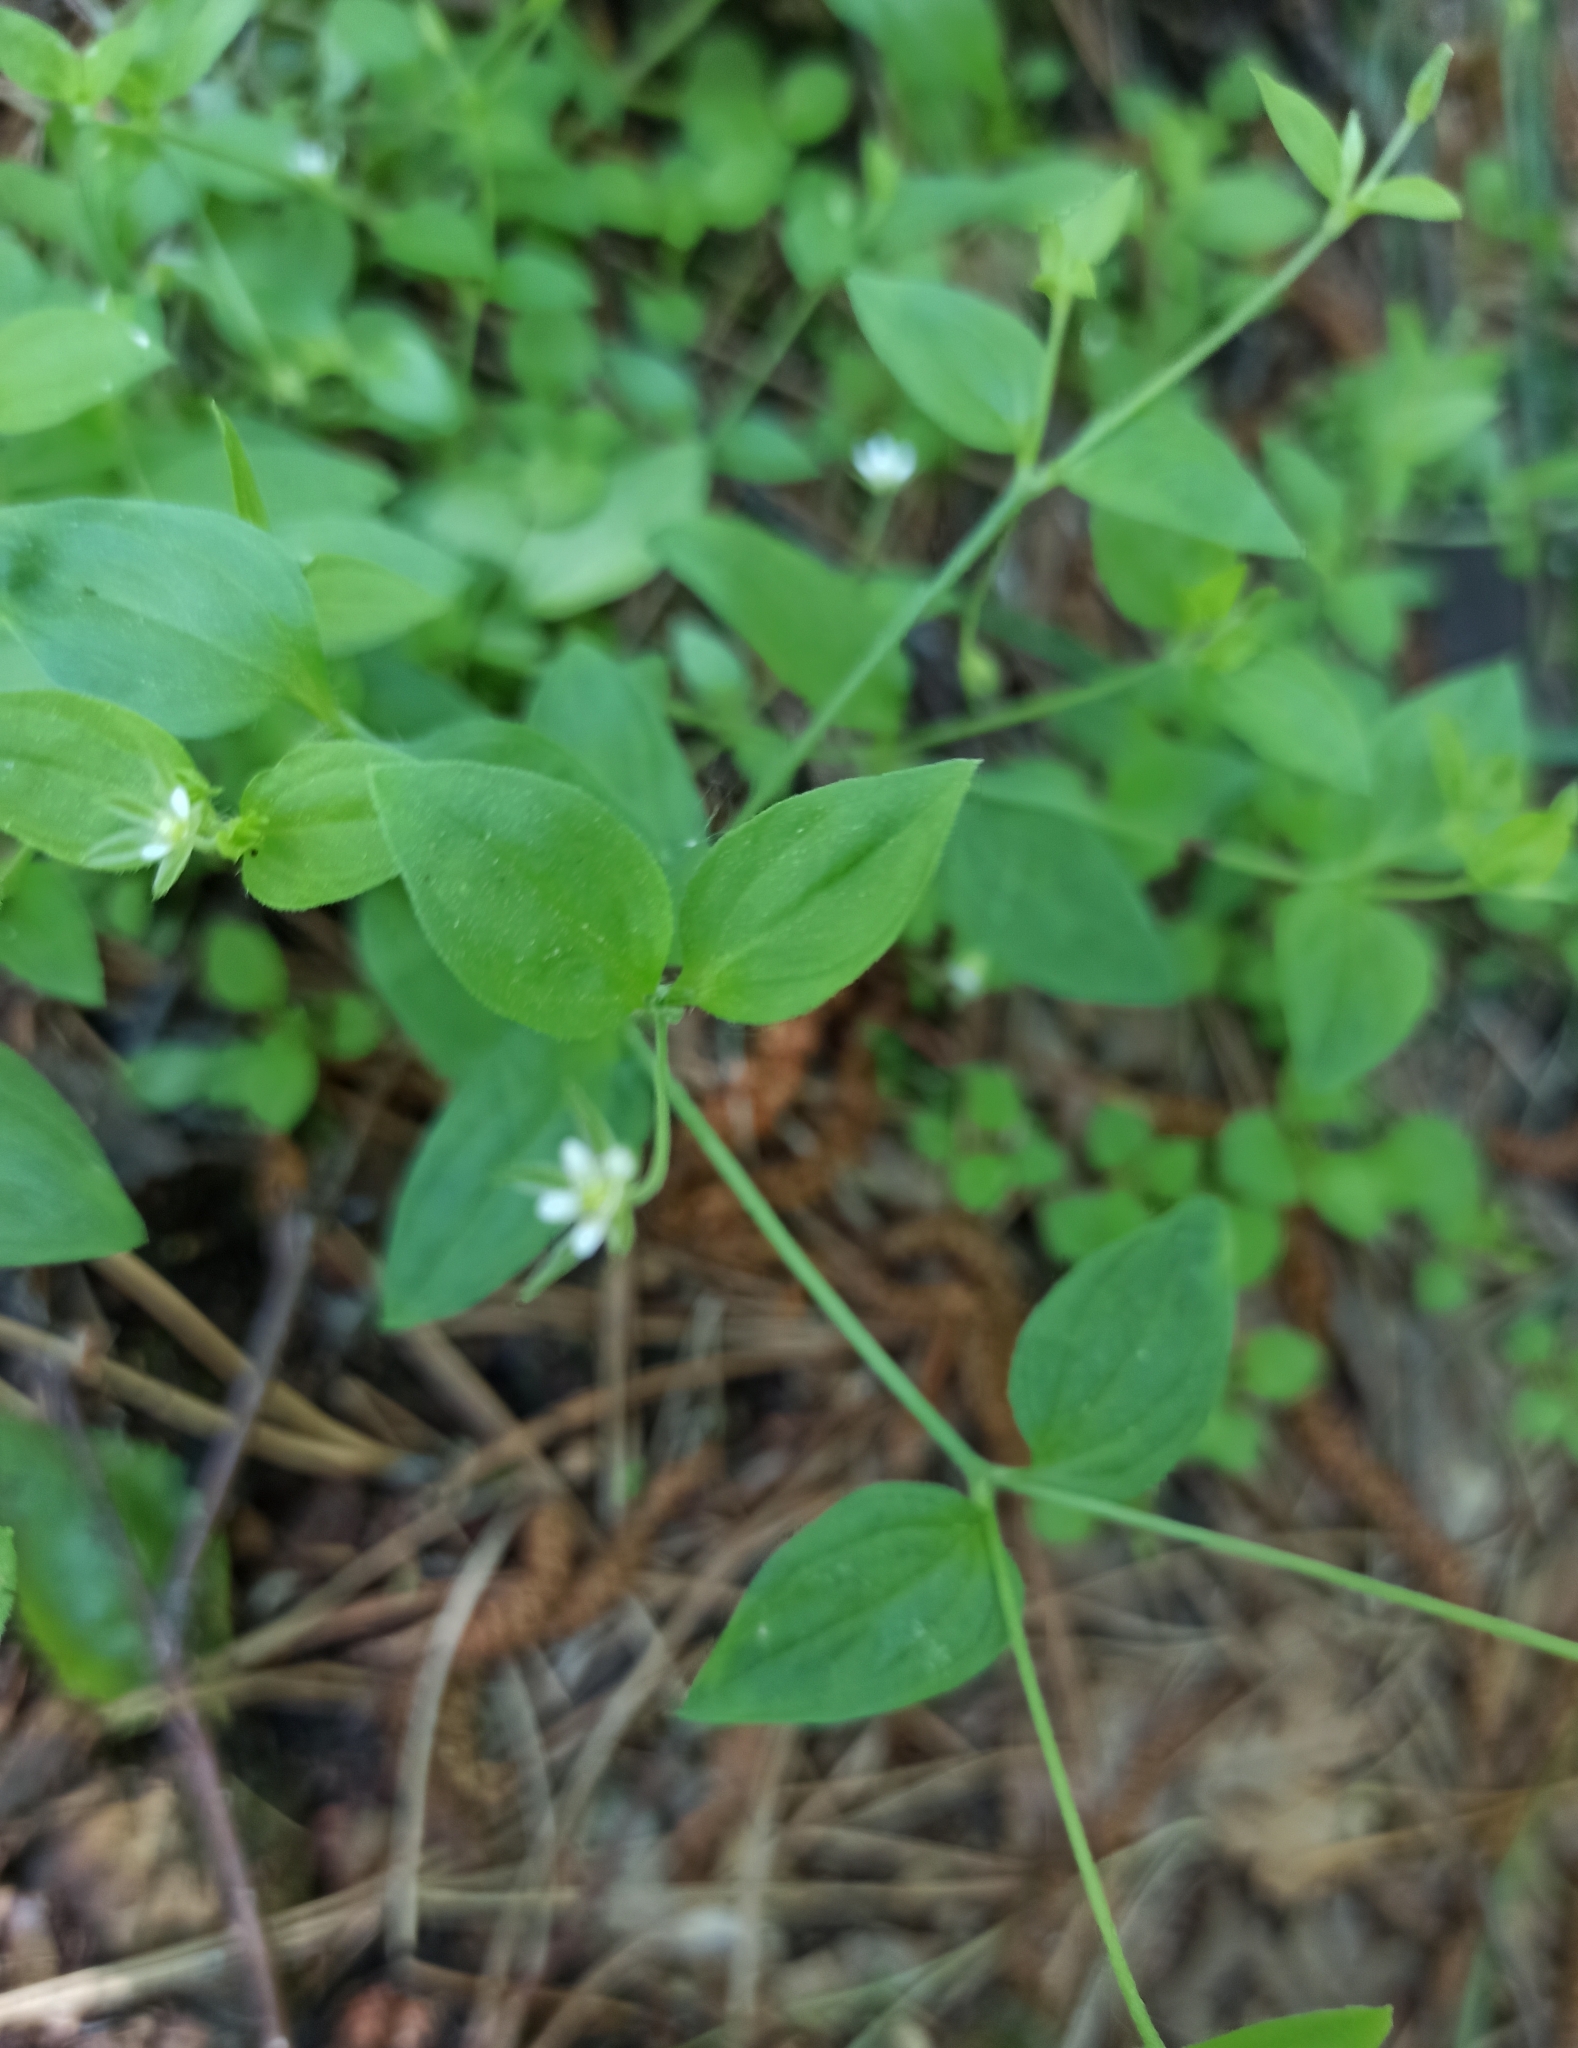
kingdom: Plantae
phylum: Tracheophyta
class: Magnoliopsida
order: Caryophyllales
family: Caryophyllaceae
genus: Moehringia
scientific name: Moehringia trinervia
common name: Three-nerved sandwort
